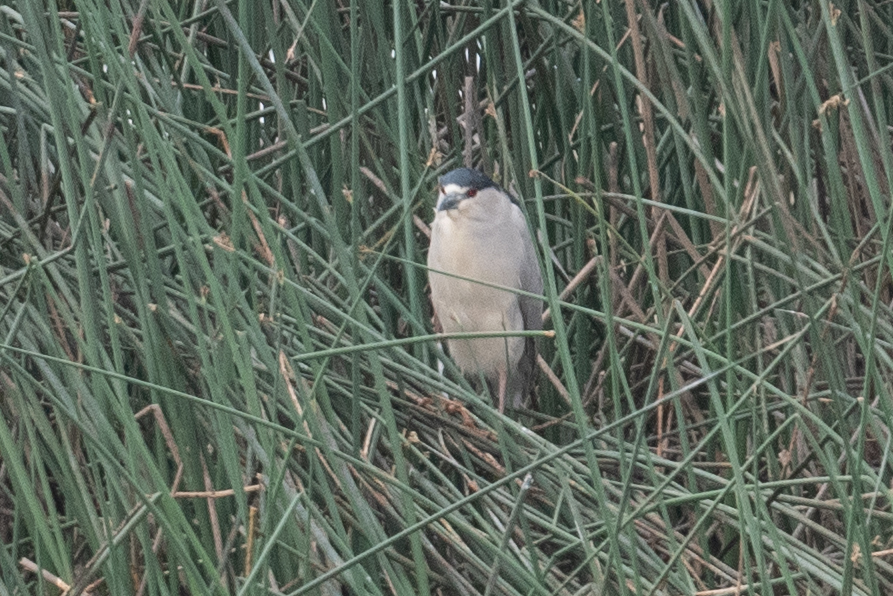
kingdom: Animalia
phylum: Chordata
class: Aves
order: Pelecaniformes
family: Ardeidae
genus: Nycticorax
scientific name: Nycticorax nycticorax
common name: Black-crowned night heron
